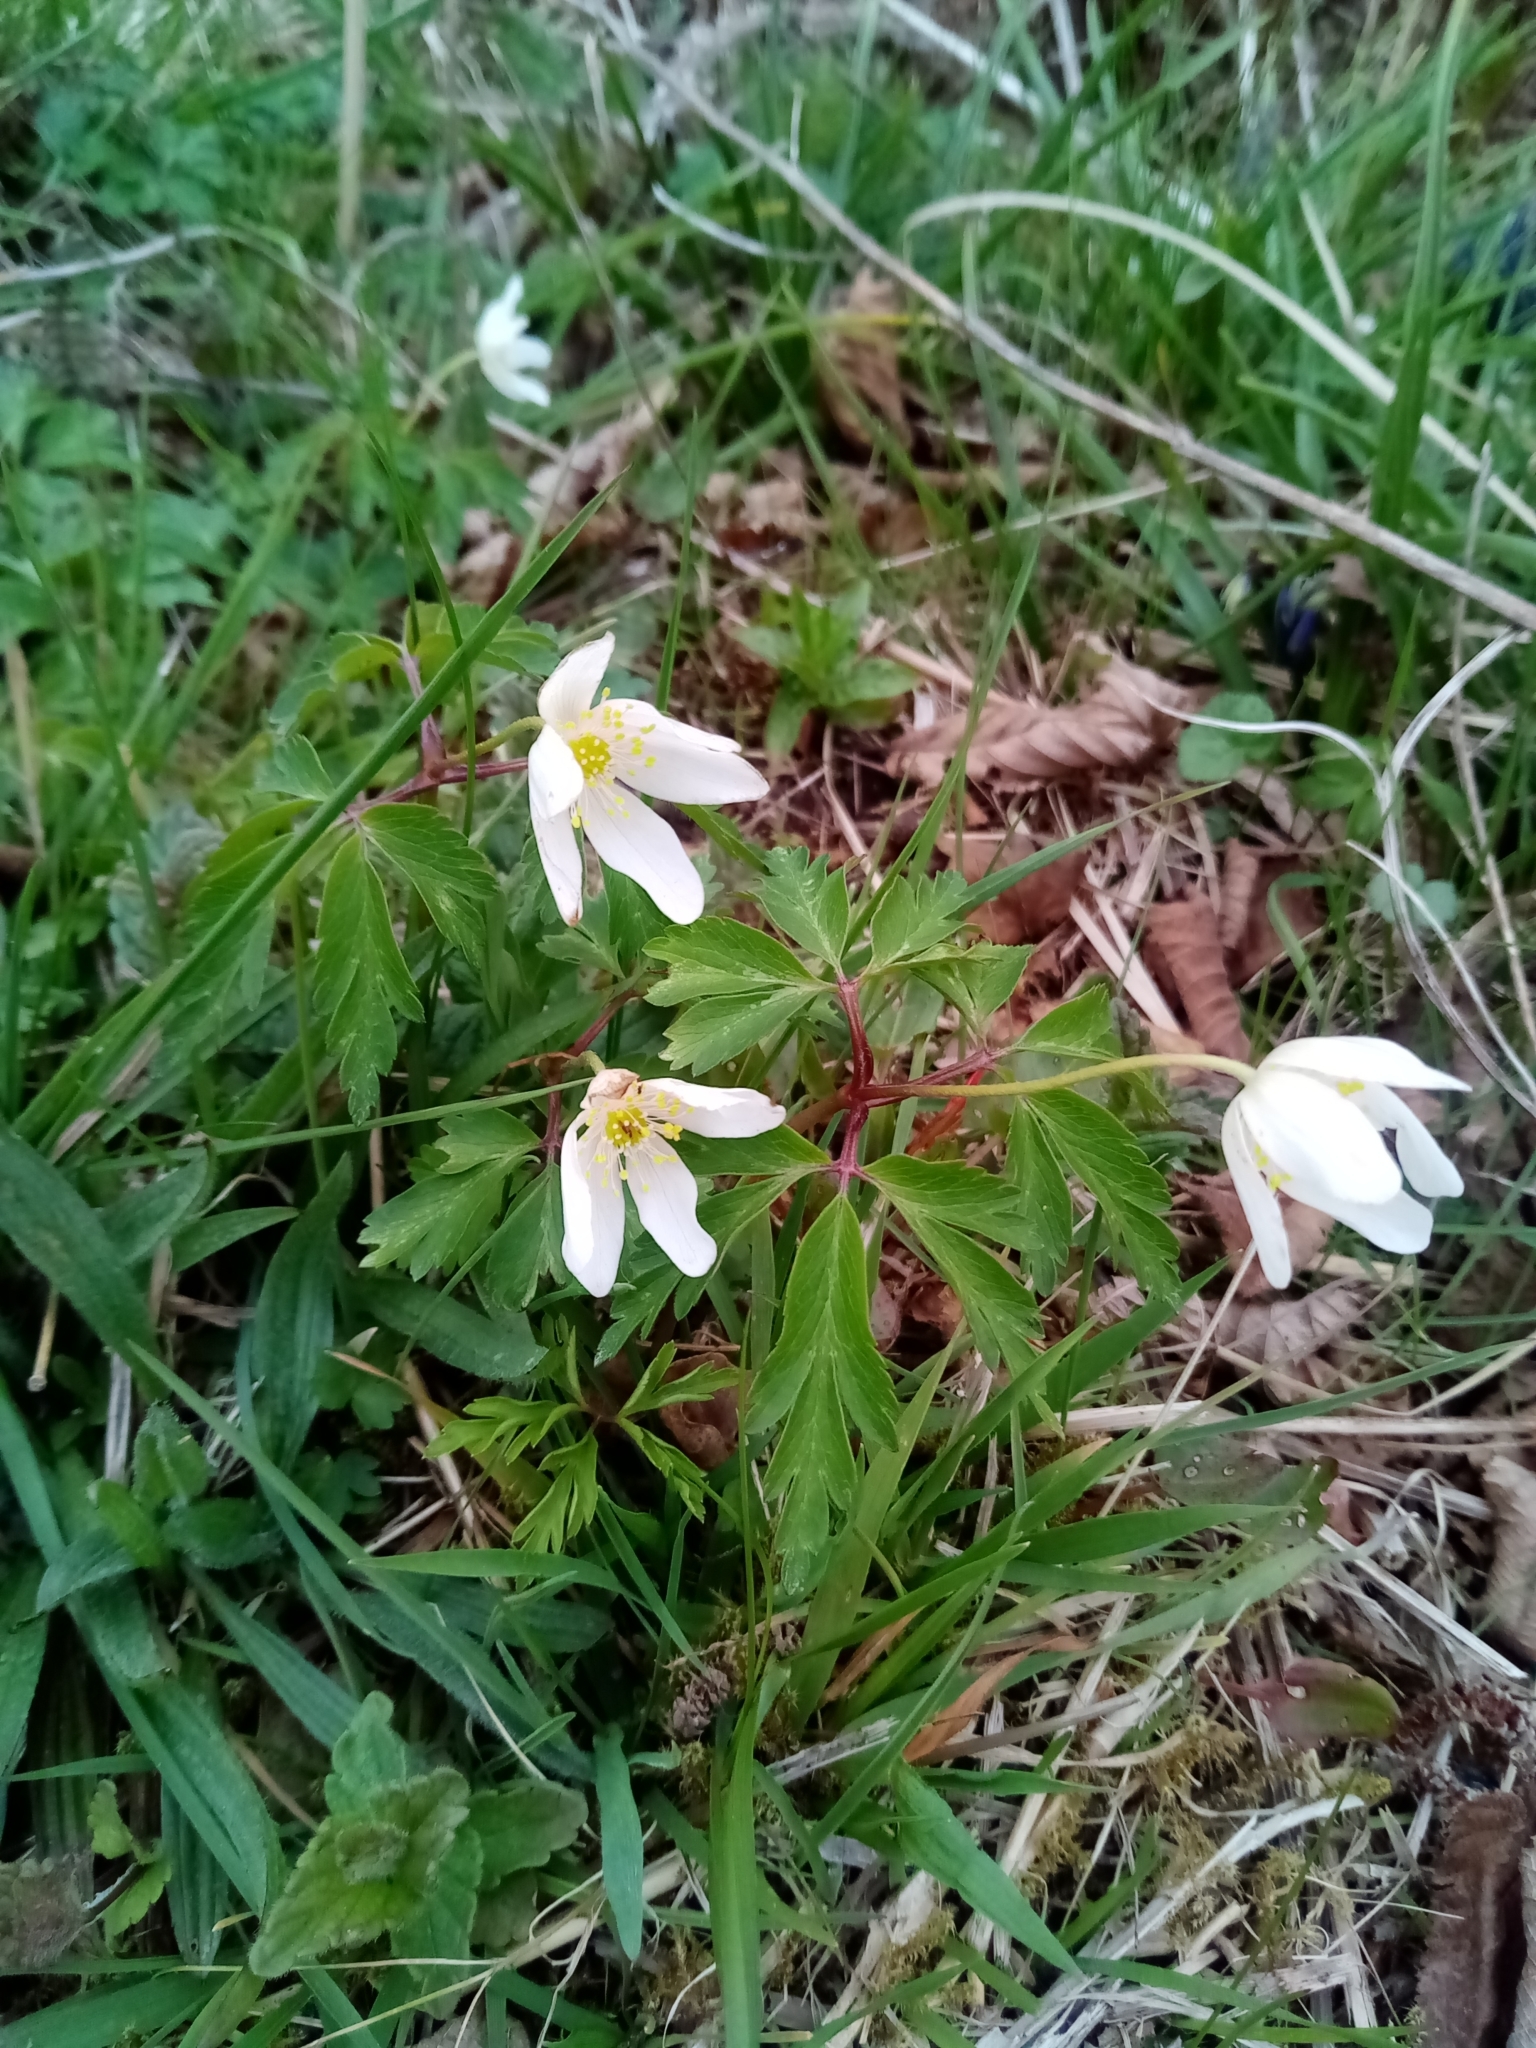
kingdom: Plantae
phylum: Tracheophyta
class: Magnoliopsida
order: Ranunculales
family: Ranunculaceae
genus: Anemone
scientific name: Anemone nemorosa
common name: Wood anemone
